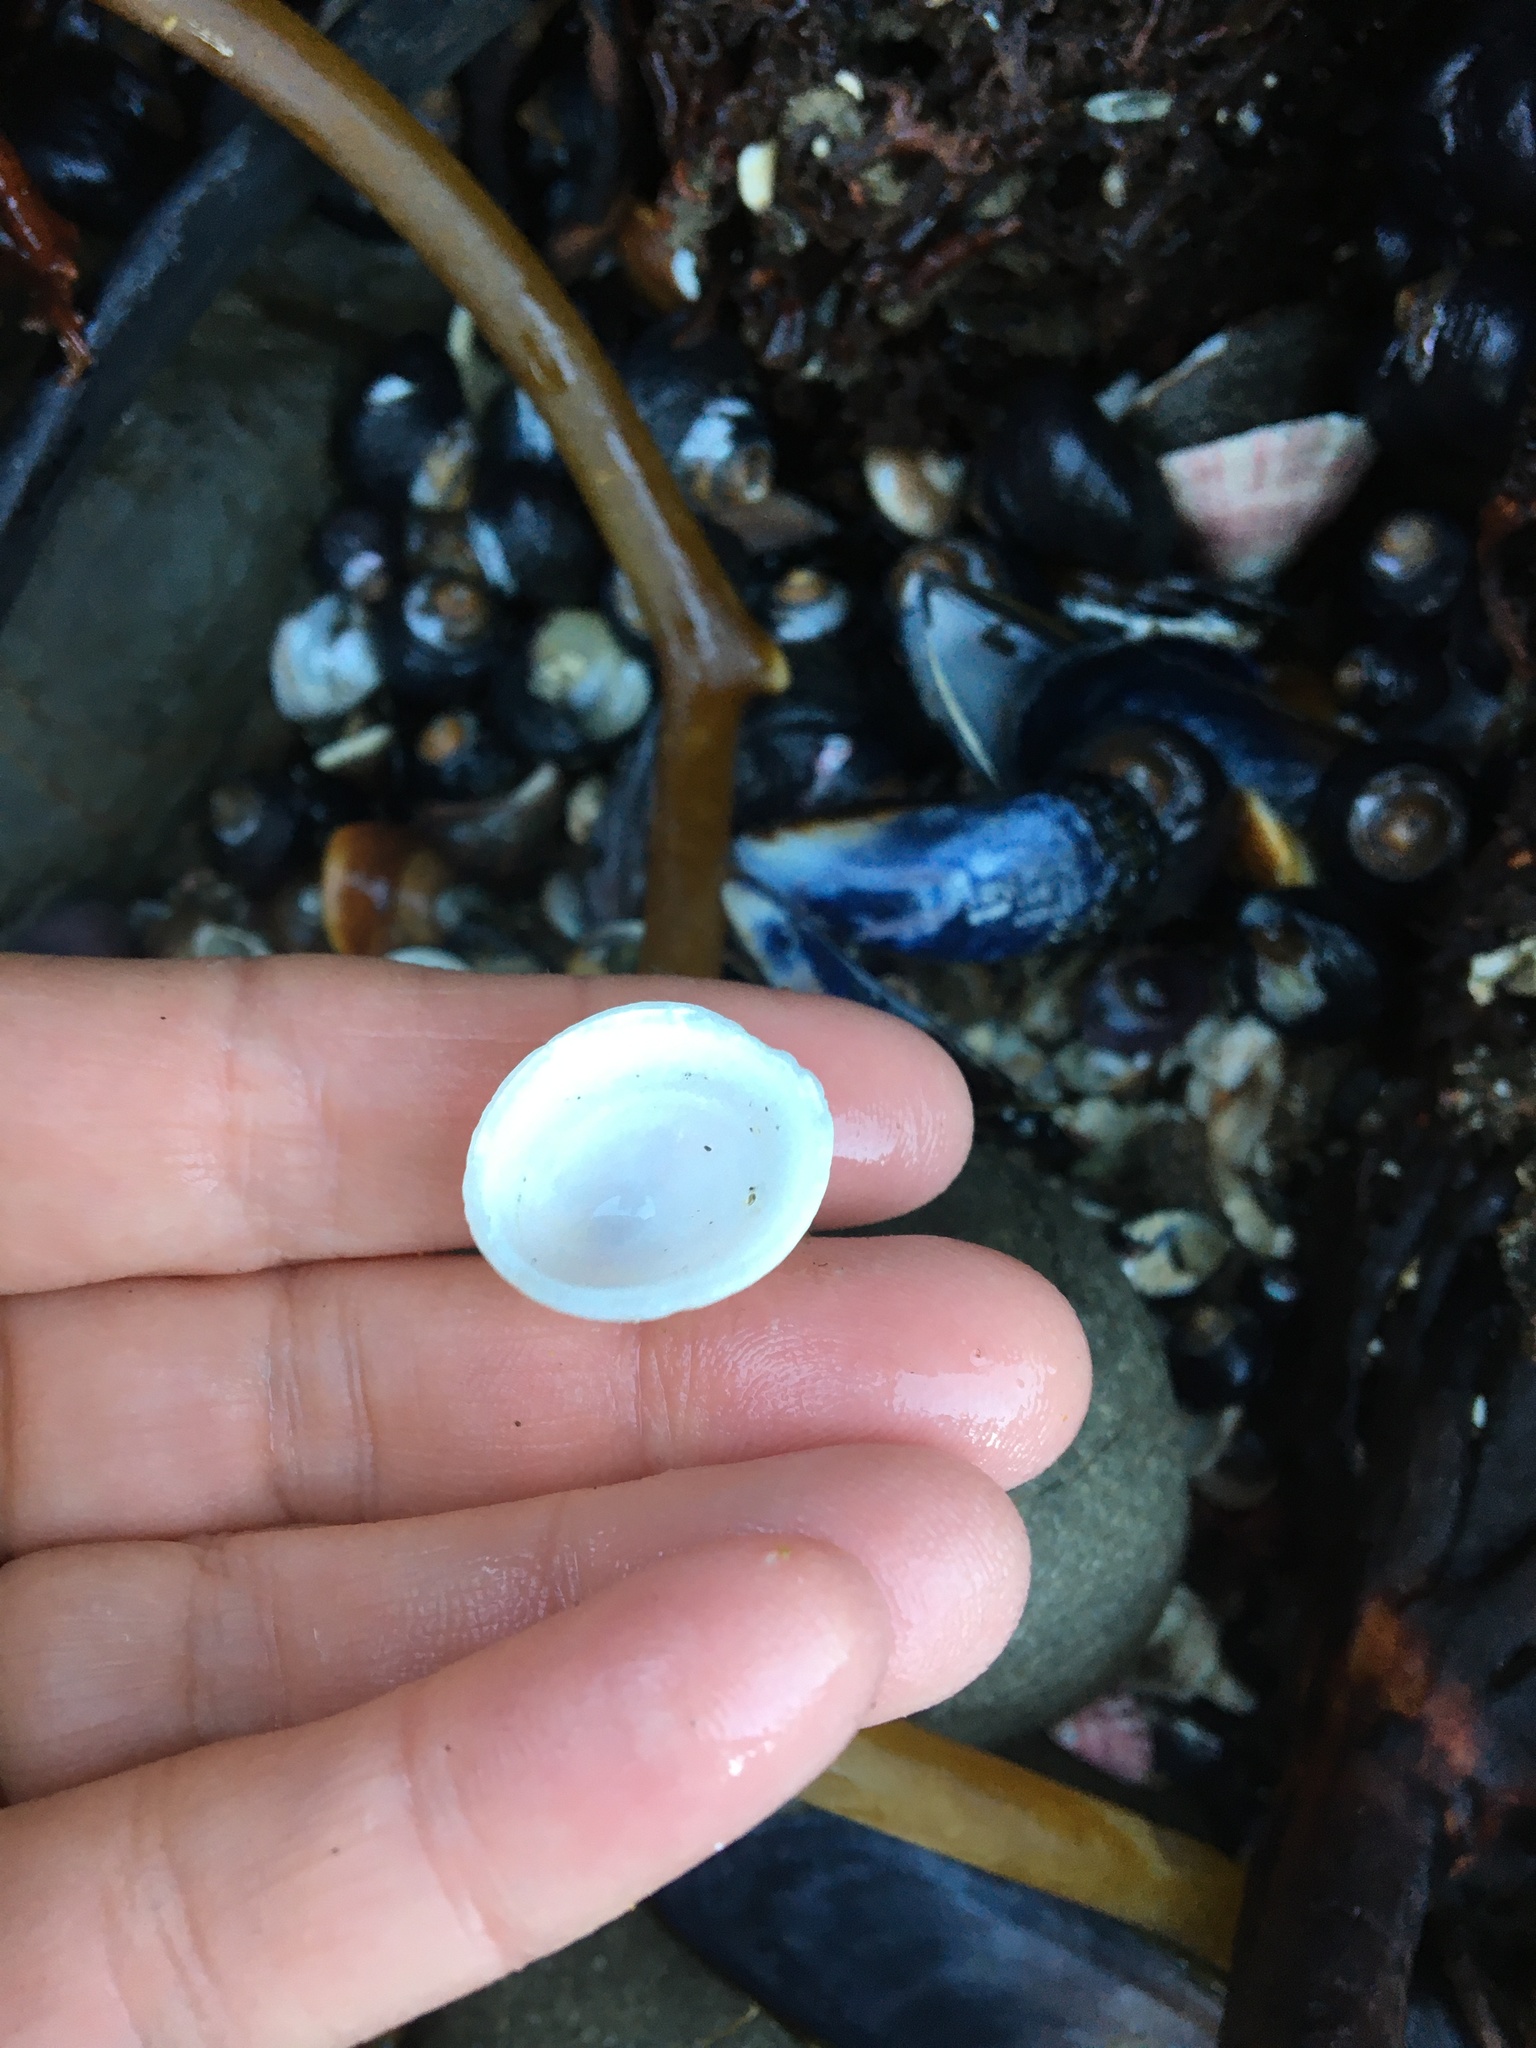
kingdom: Animalia
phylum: Mollusca
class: Gastropoda
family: Acmaeidae
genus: Acmaea
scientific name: Acmaea mitra
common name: Pacific white cap limpet
